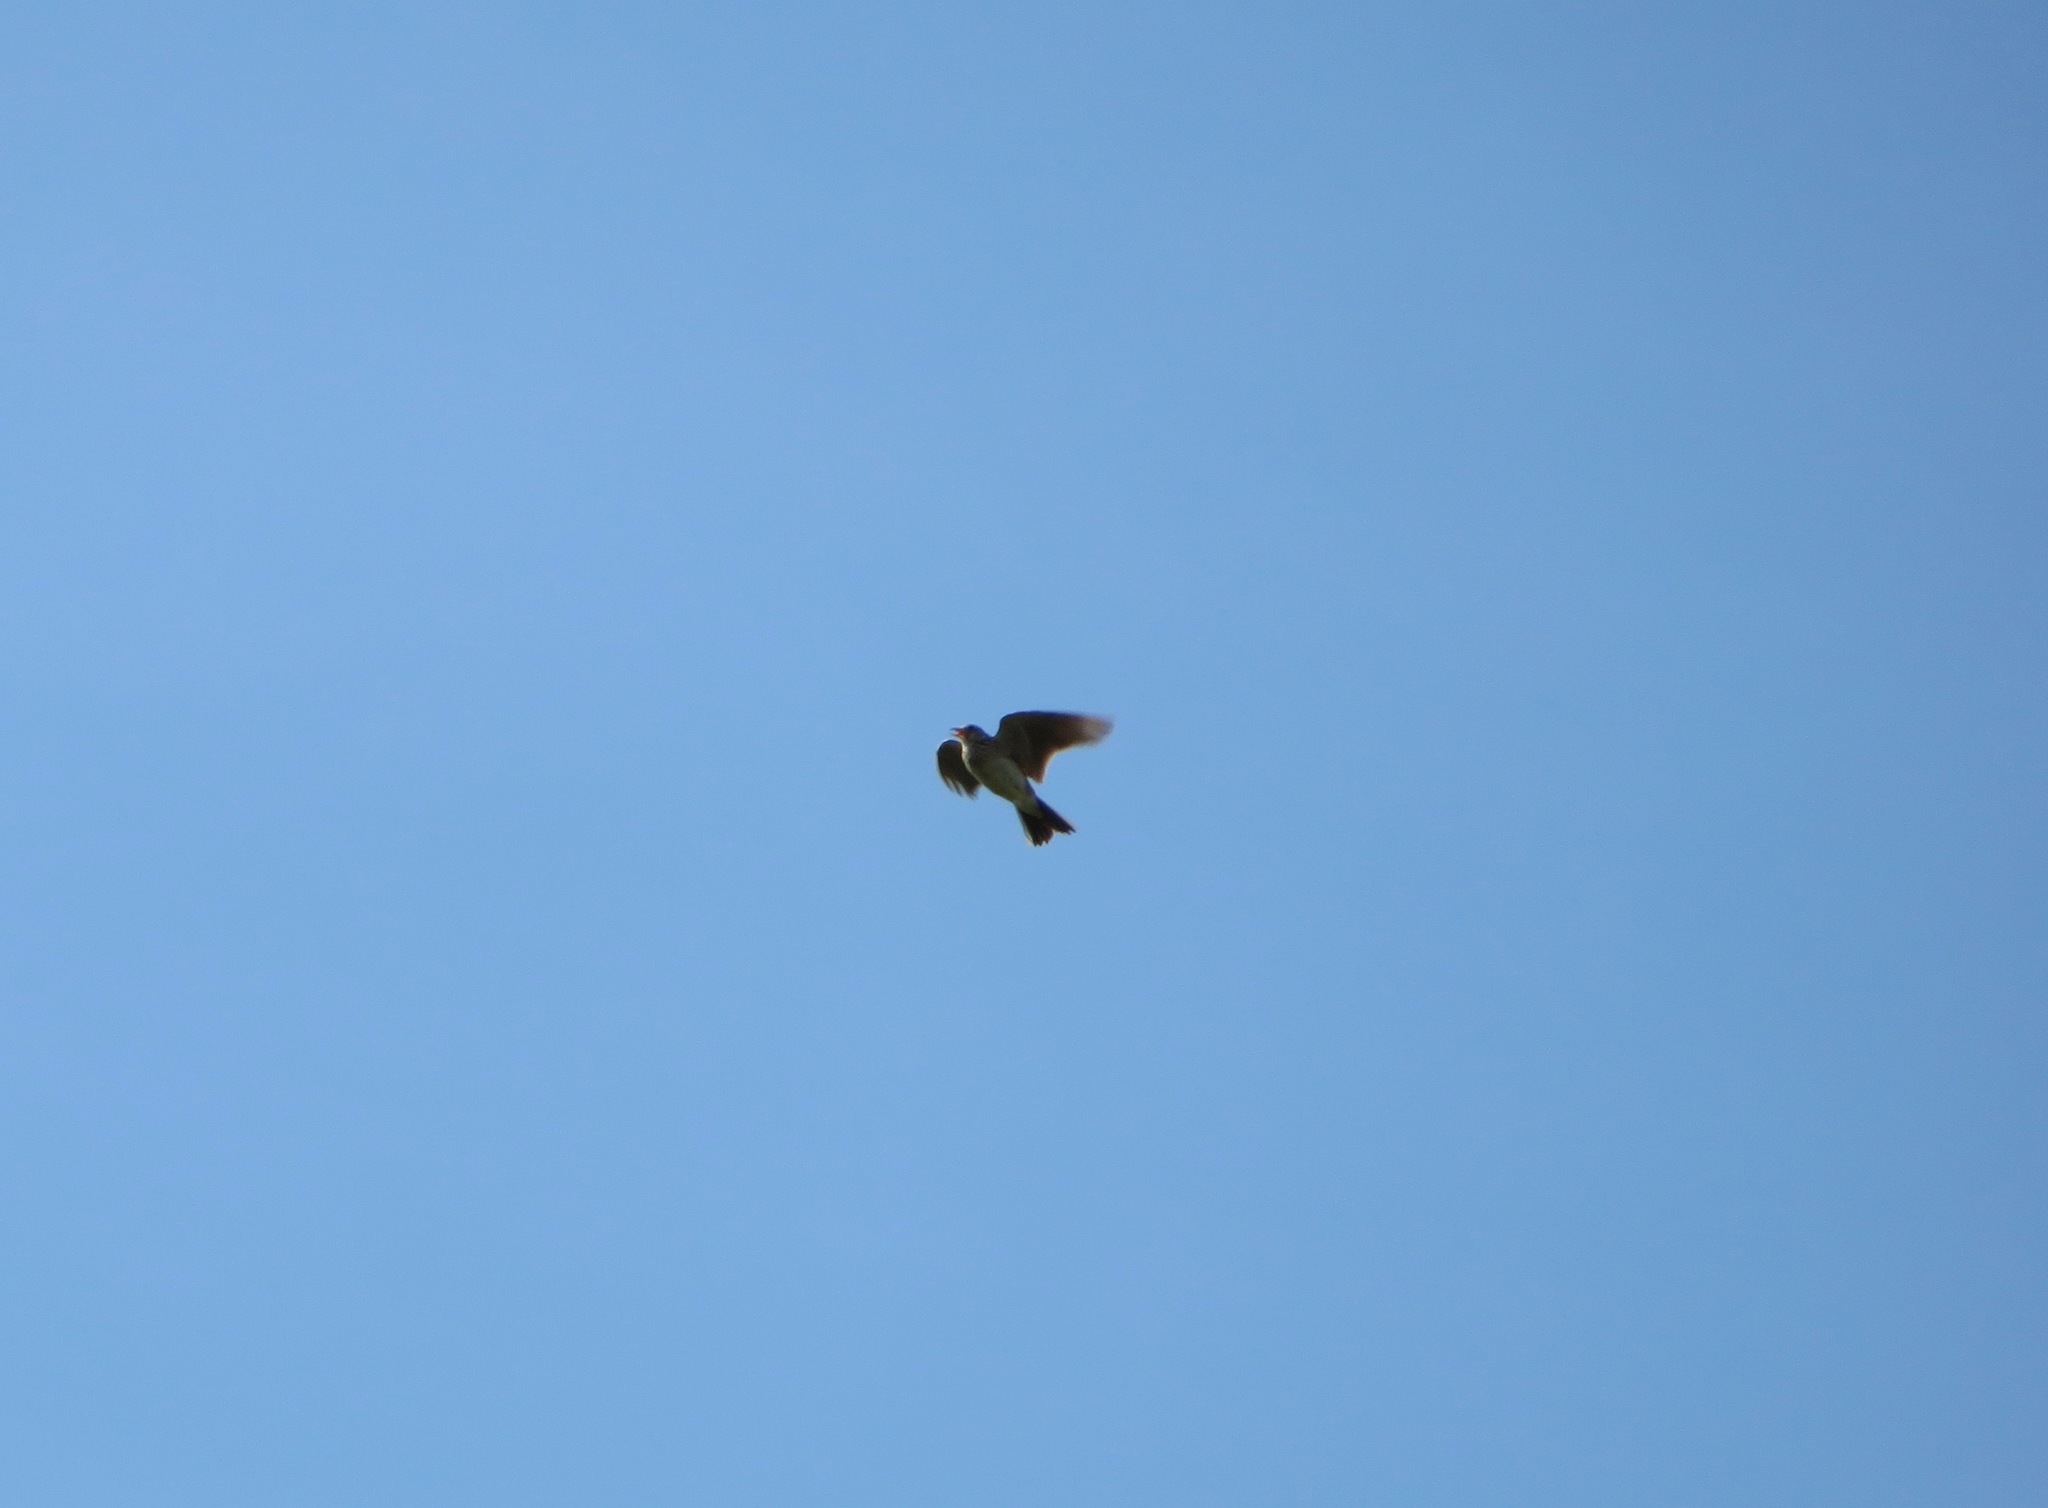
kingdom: Animalia
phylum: Chordata
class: Aves
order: Passeriformes
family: Alaudidae
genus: Alauda
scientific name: Alauda arvensis
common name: Eurasian skylark
